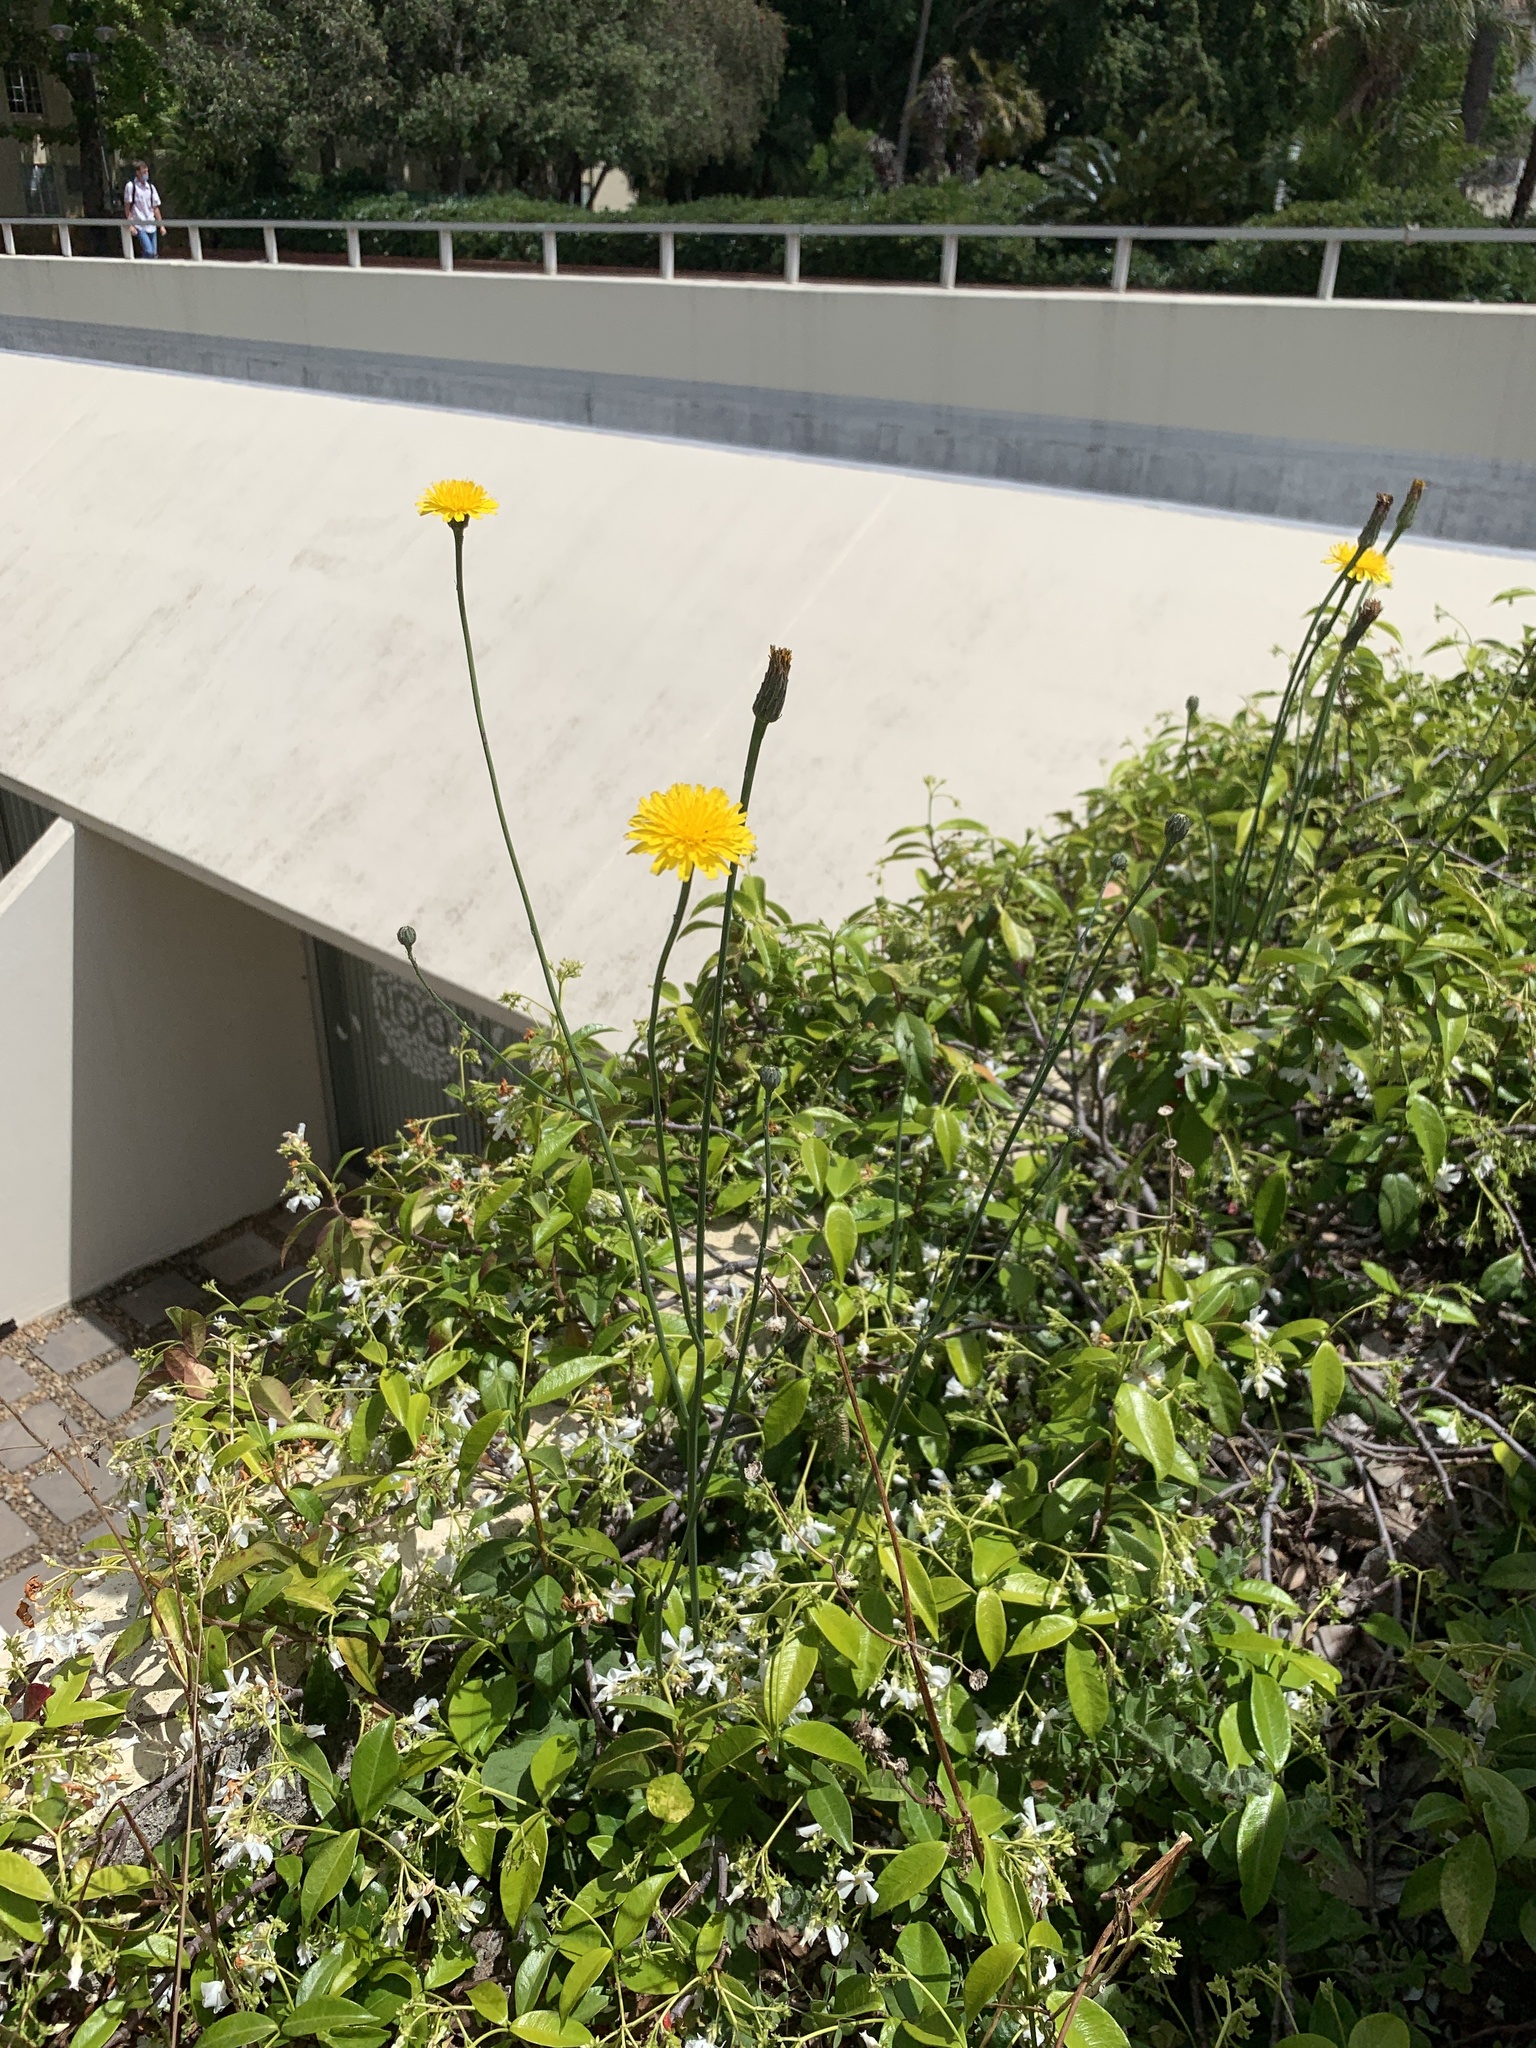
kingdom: Plantae
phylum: Tracheophyta
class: Magnoliopsida
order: Asterales
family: Asteraceae
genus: Hypochaeris
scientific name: Hypochaeris radicata
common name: Flatweed
